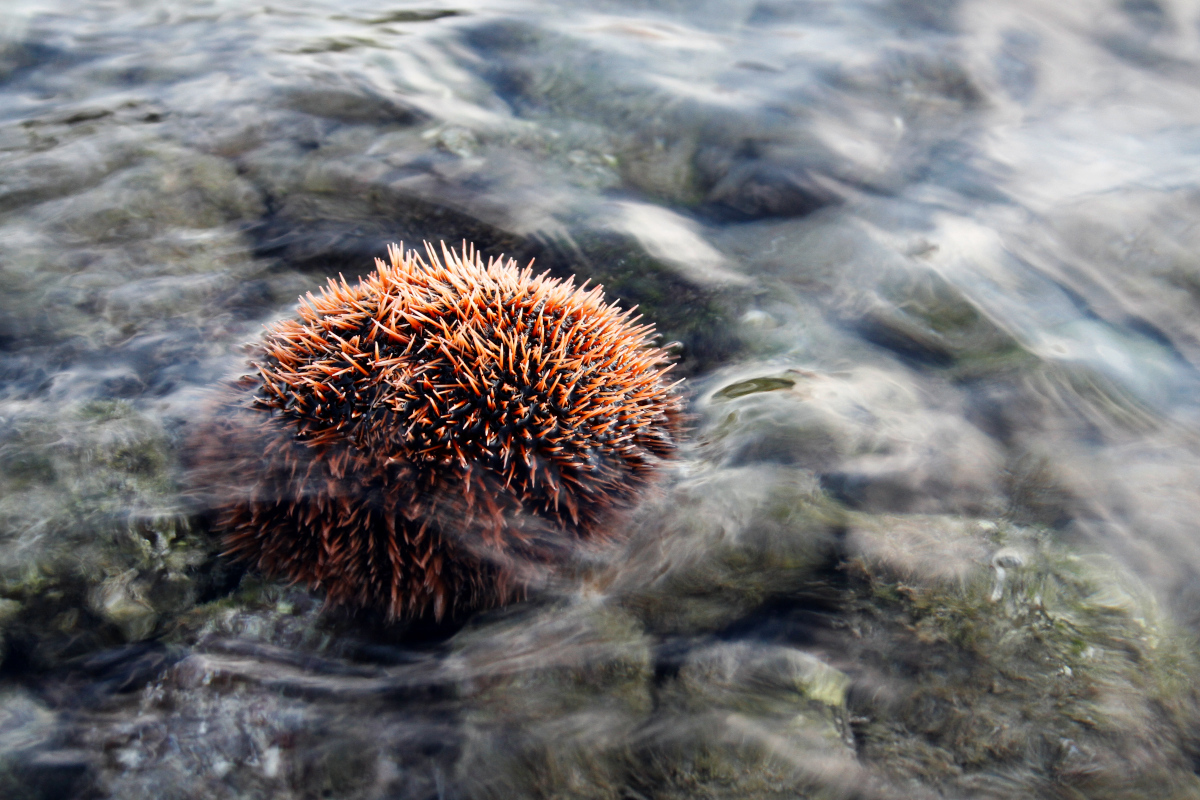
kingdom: Animalia
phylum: Echinodermata
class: Echinoidea
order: Camarodonta
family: Toxopneustidae
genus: Tripneustes
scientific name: Tripneustes depressus
